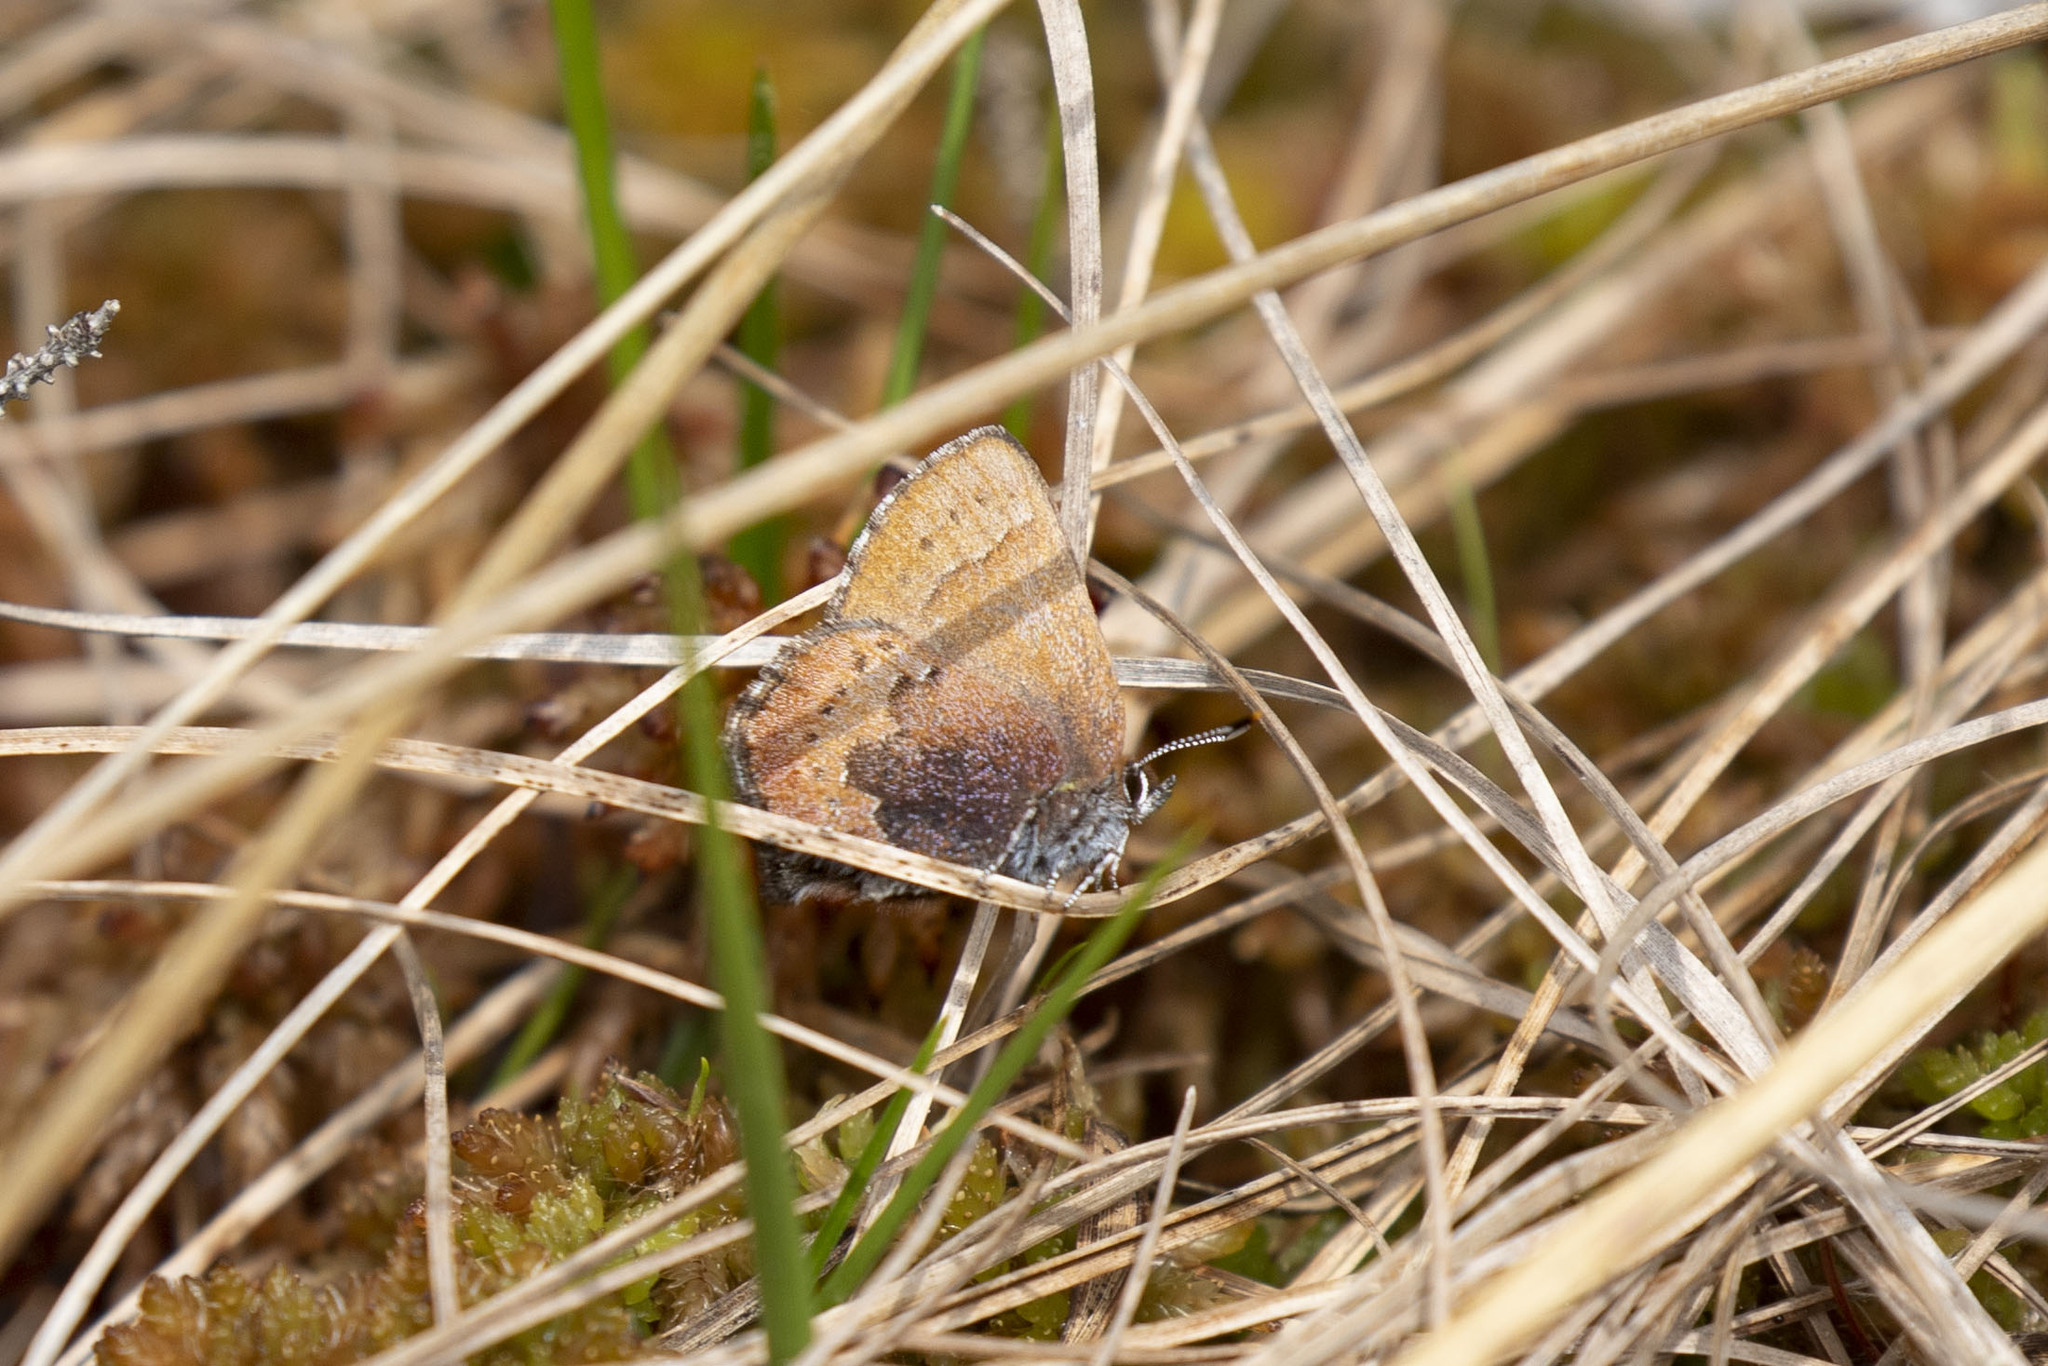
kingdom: Animalia
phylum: Arthropoda
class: Insecta
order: Lepidoptera
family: Lycaenidae
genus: Incisalia
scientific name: Incisalia irioides
